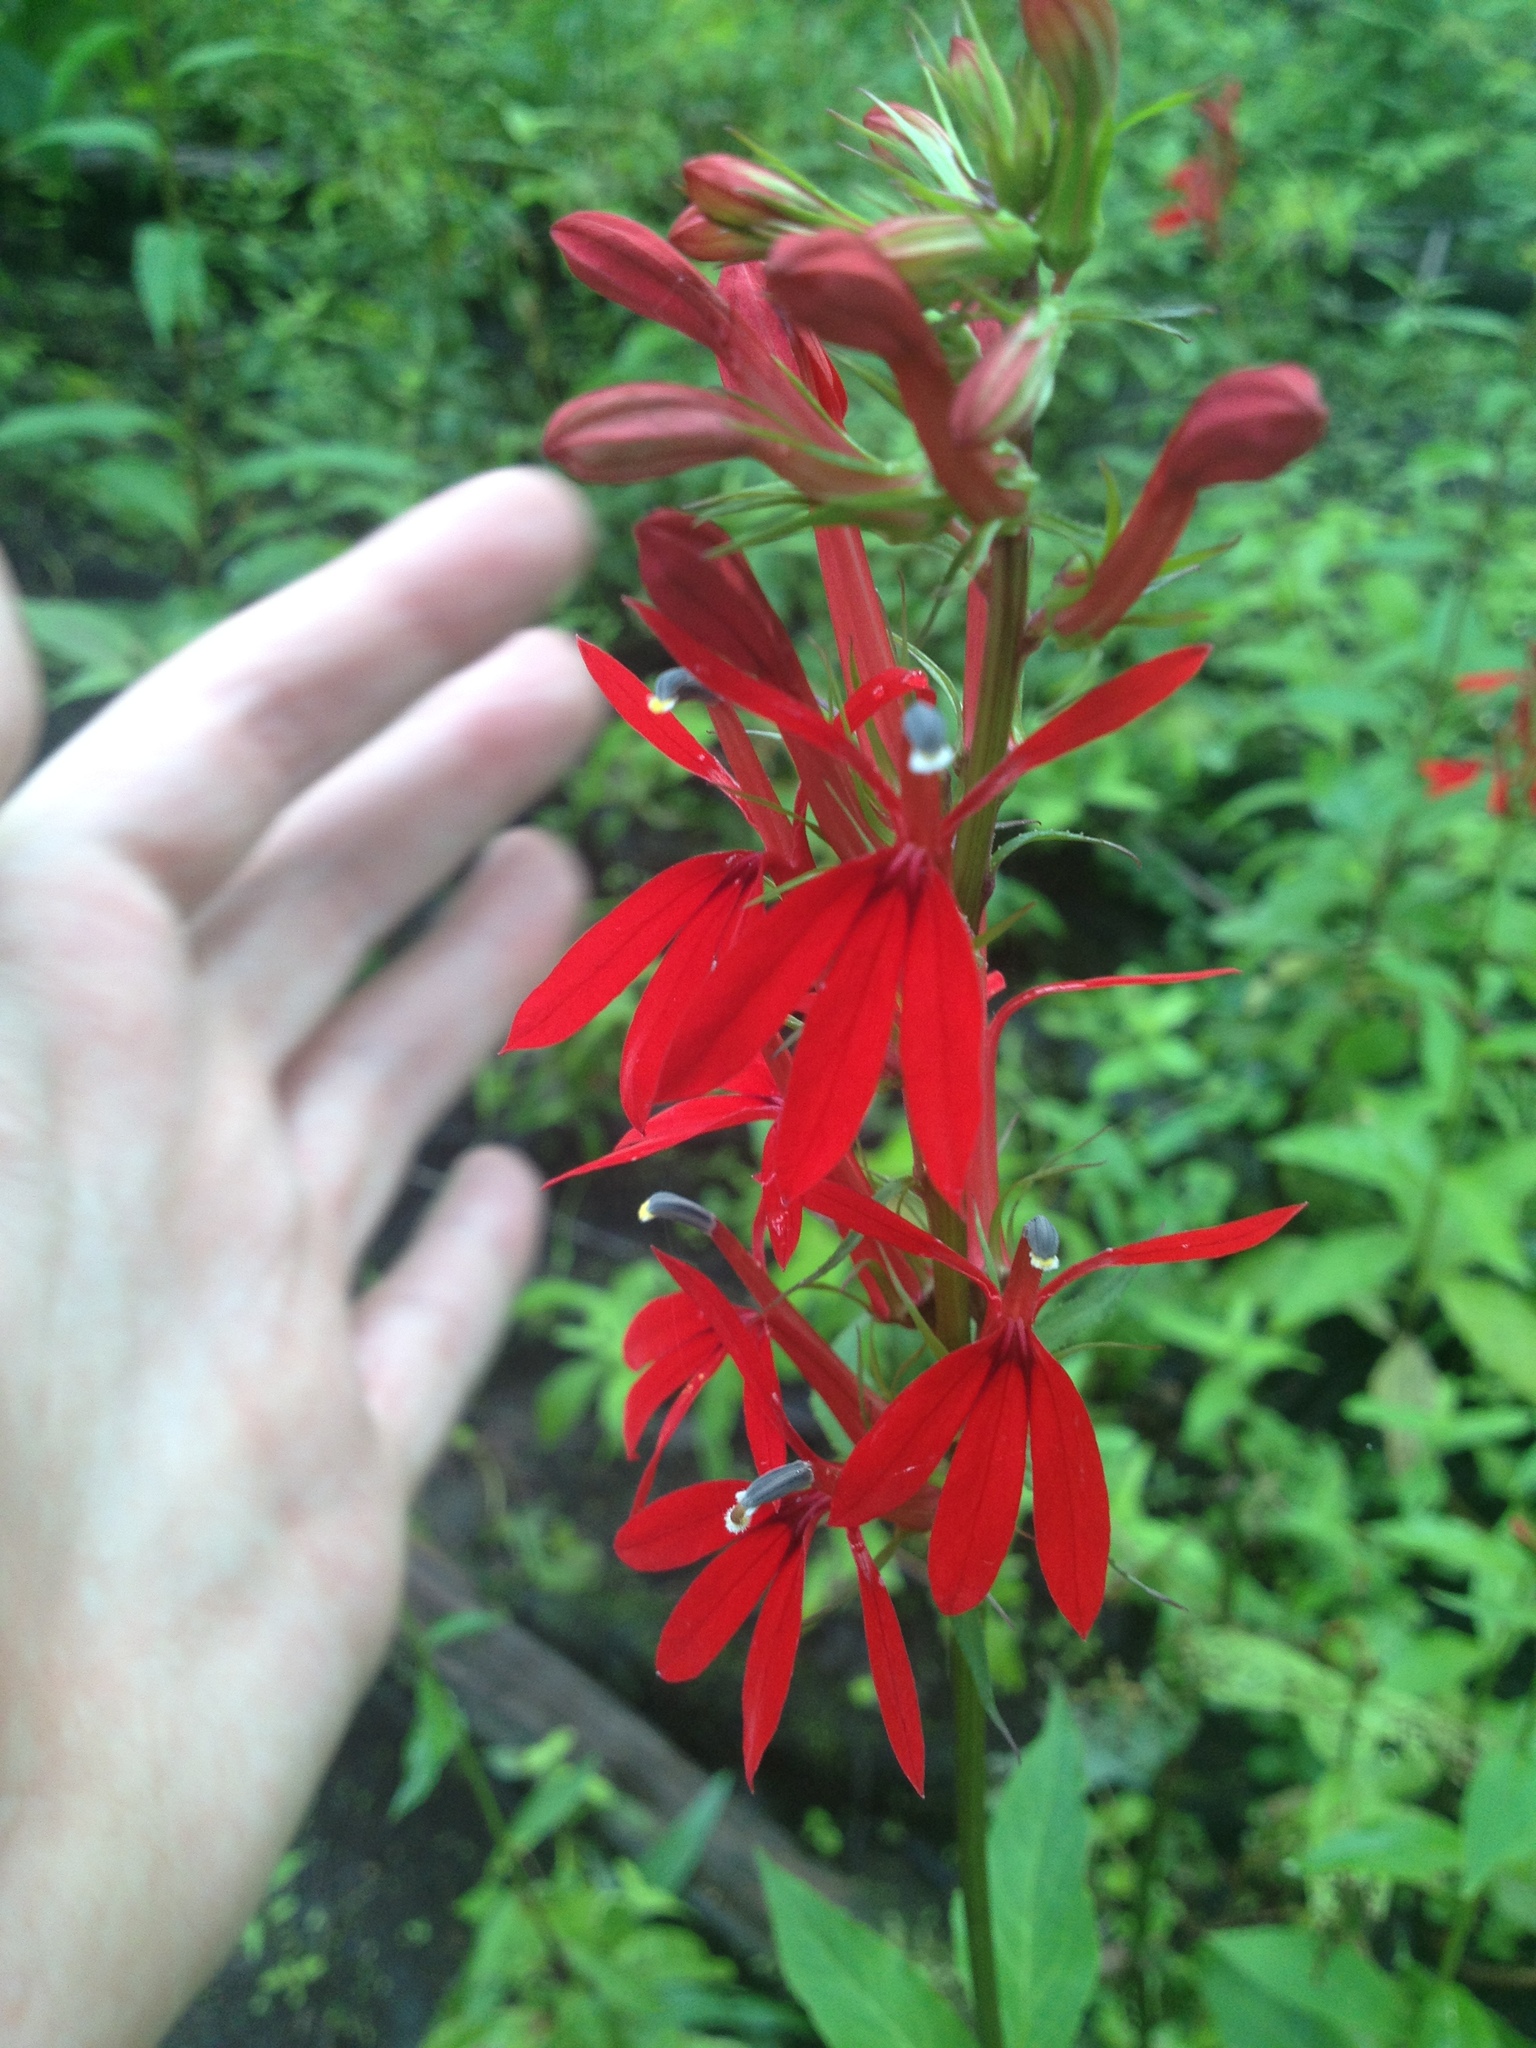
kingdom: Plantae
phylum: Tracheophyta
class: Magnoliopsida
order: Asterales
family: Campanulaceae
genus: Lobelia
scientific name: Lobelia cardinalis
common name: Cardinal flower
